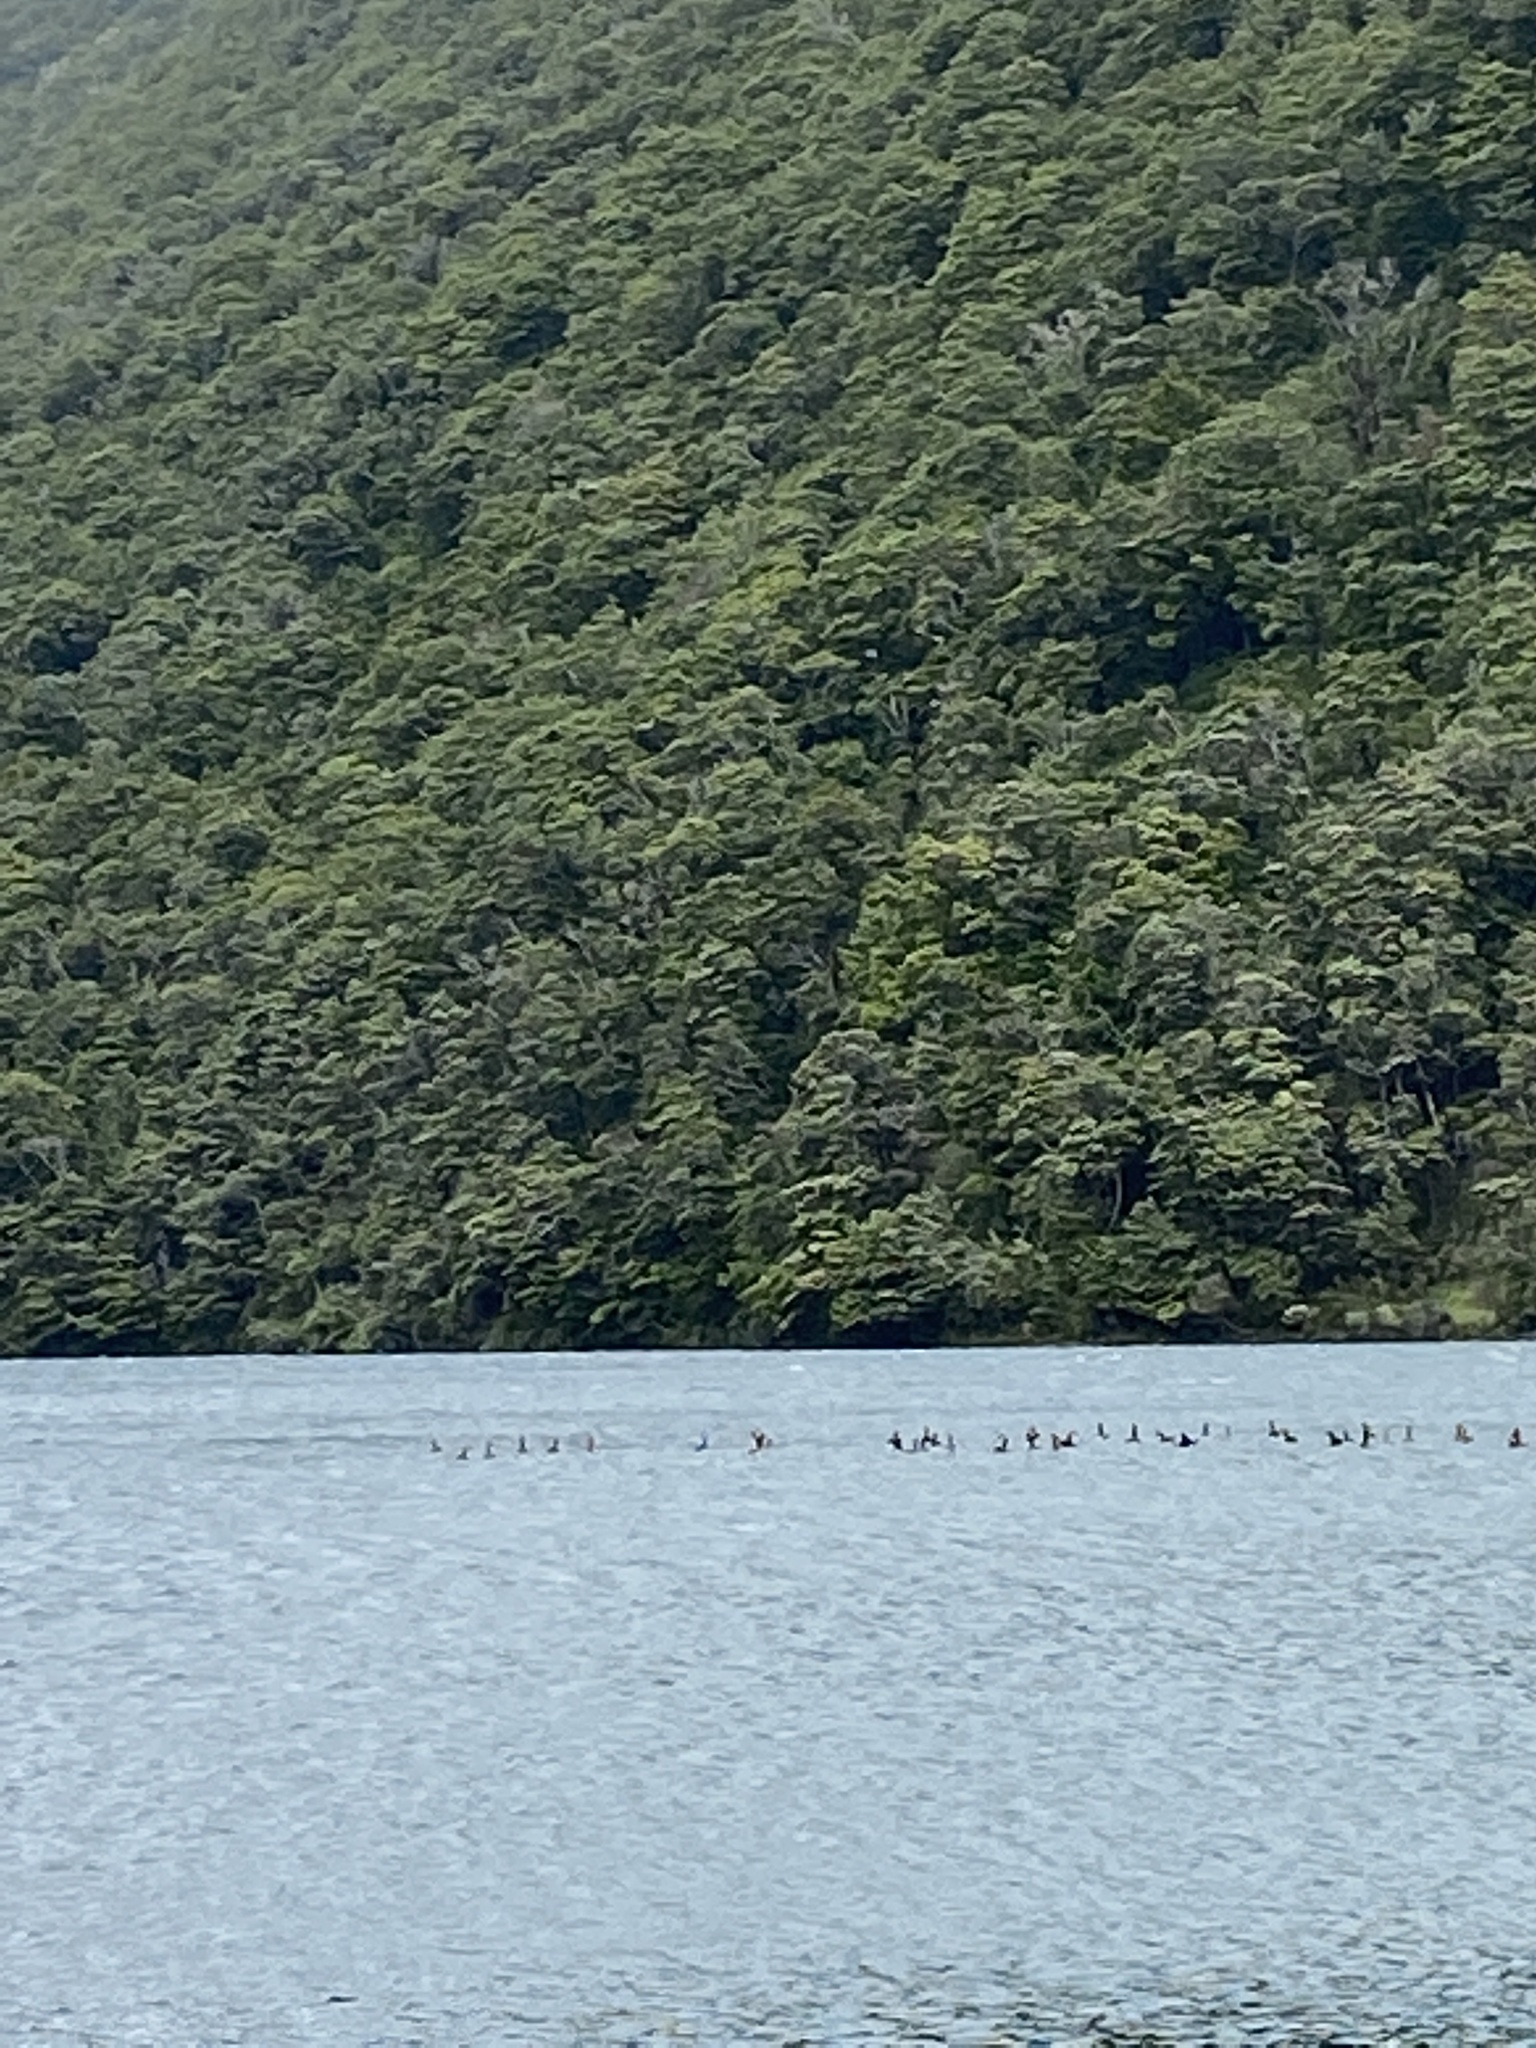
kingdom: Animalia
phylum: Chordata
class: Aves
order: Anseriformes
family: Anatidae
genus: Branta
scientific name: Branta canadensis
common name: Canada goose
